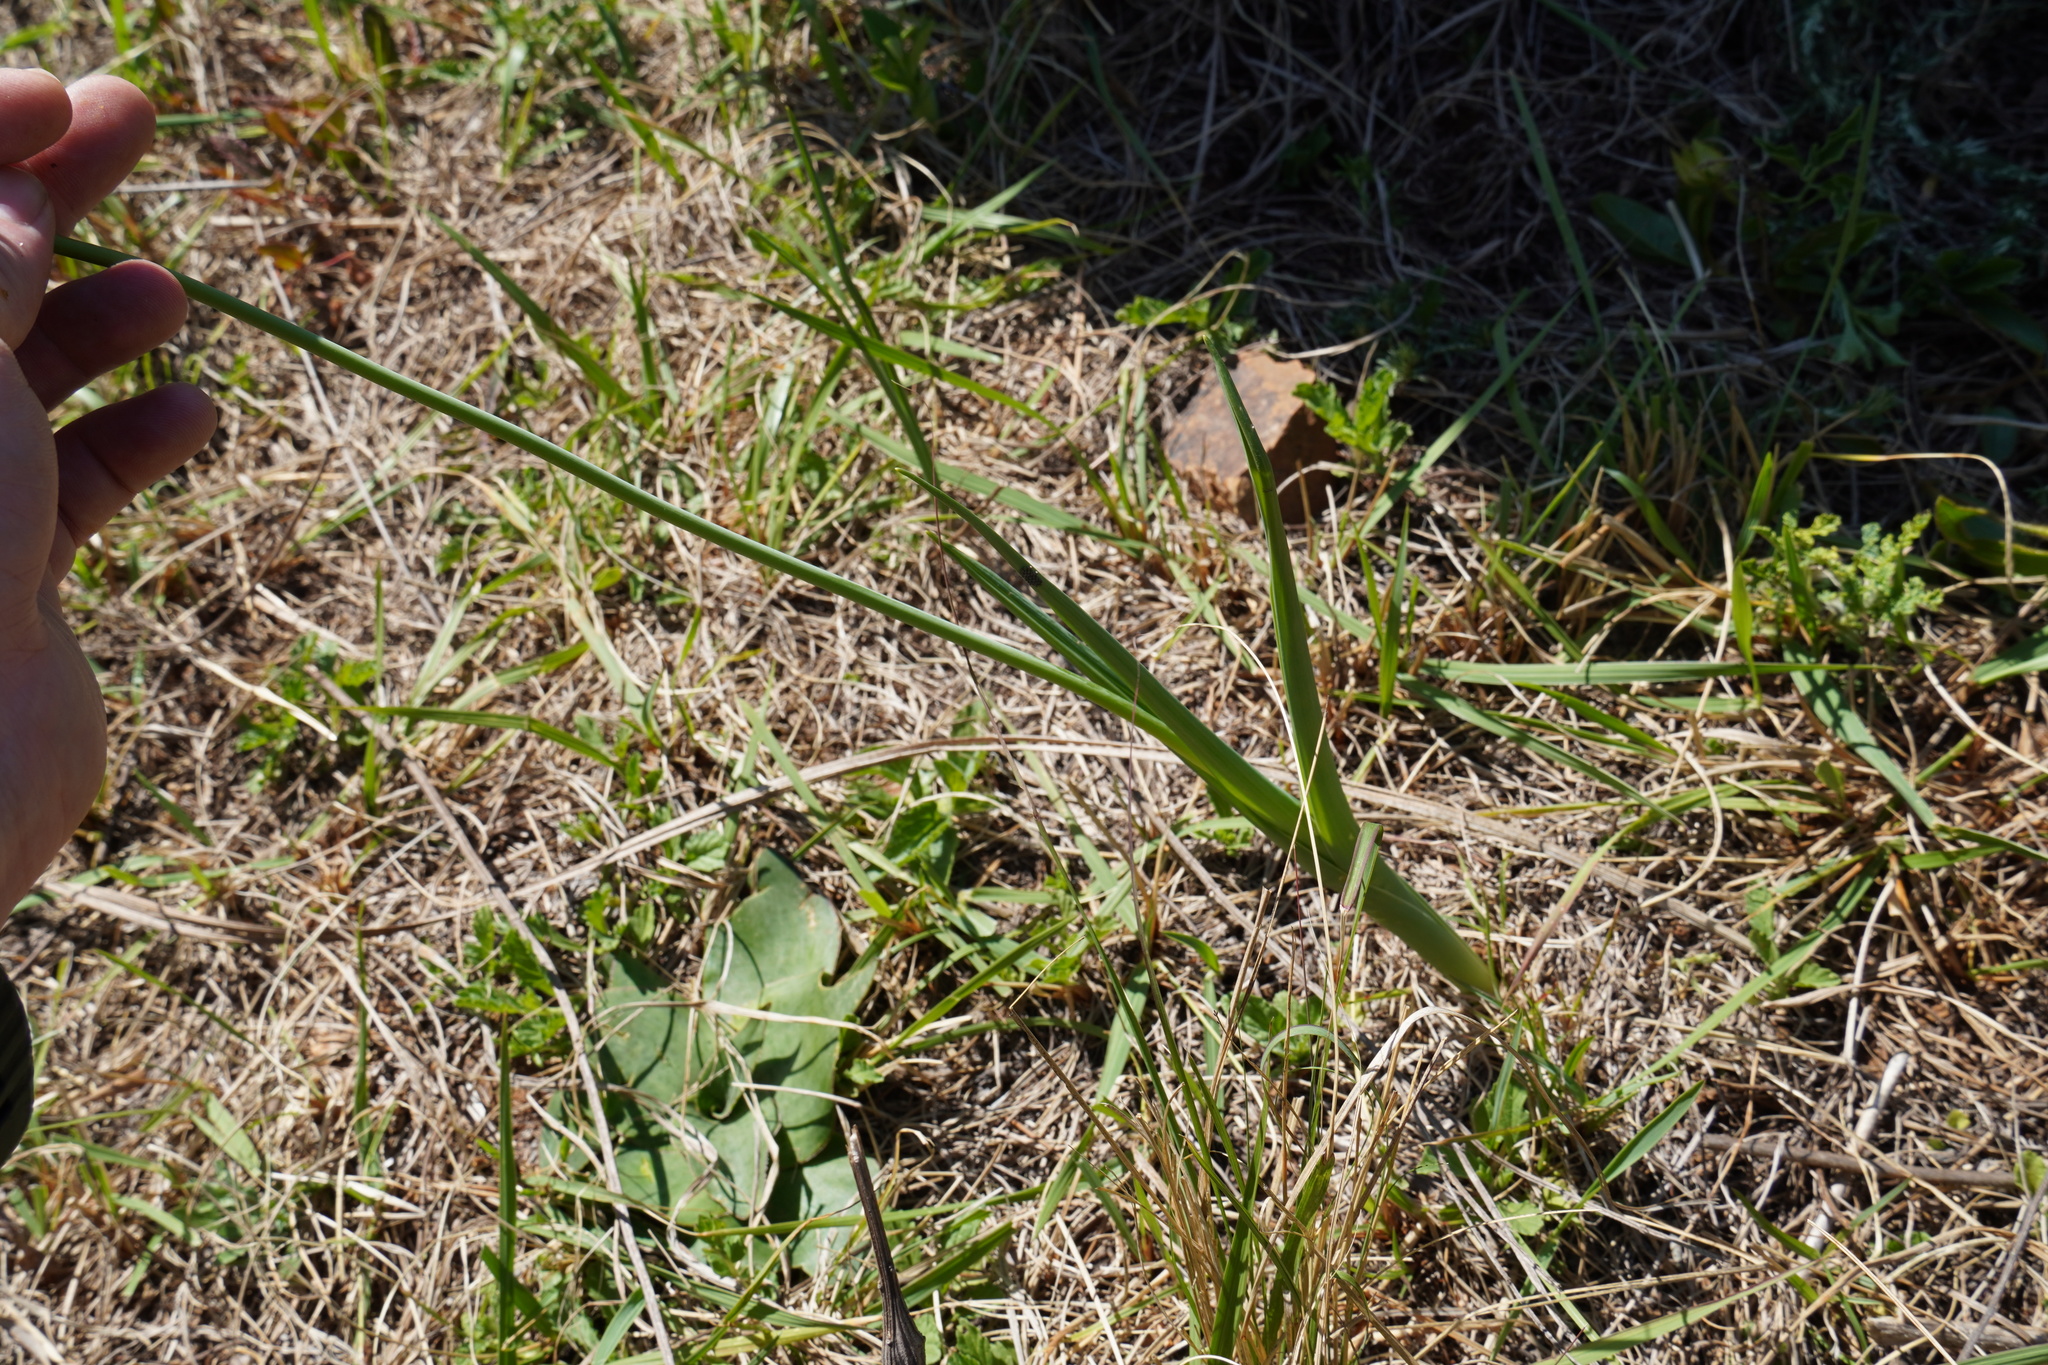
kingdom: Plantae
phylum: Tracheophyta
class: Liliopsida
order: Asparagales
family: Asparagaceae
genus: Albuca
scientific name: Albuca virens
